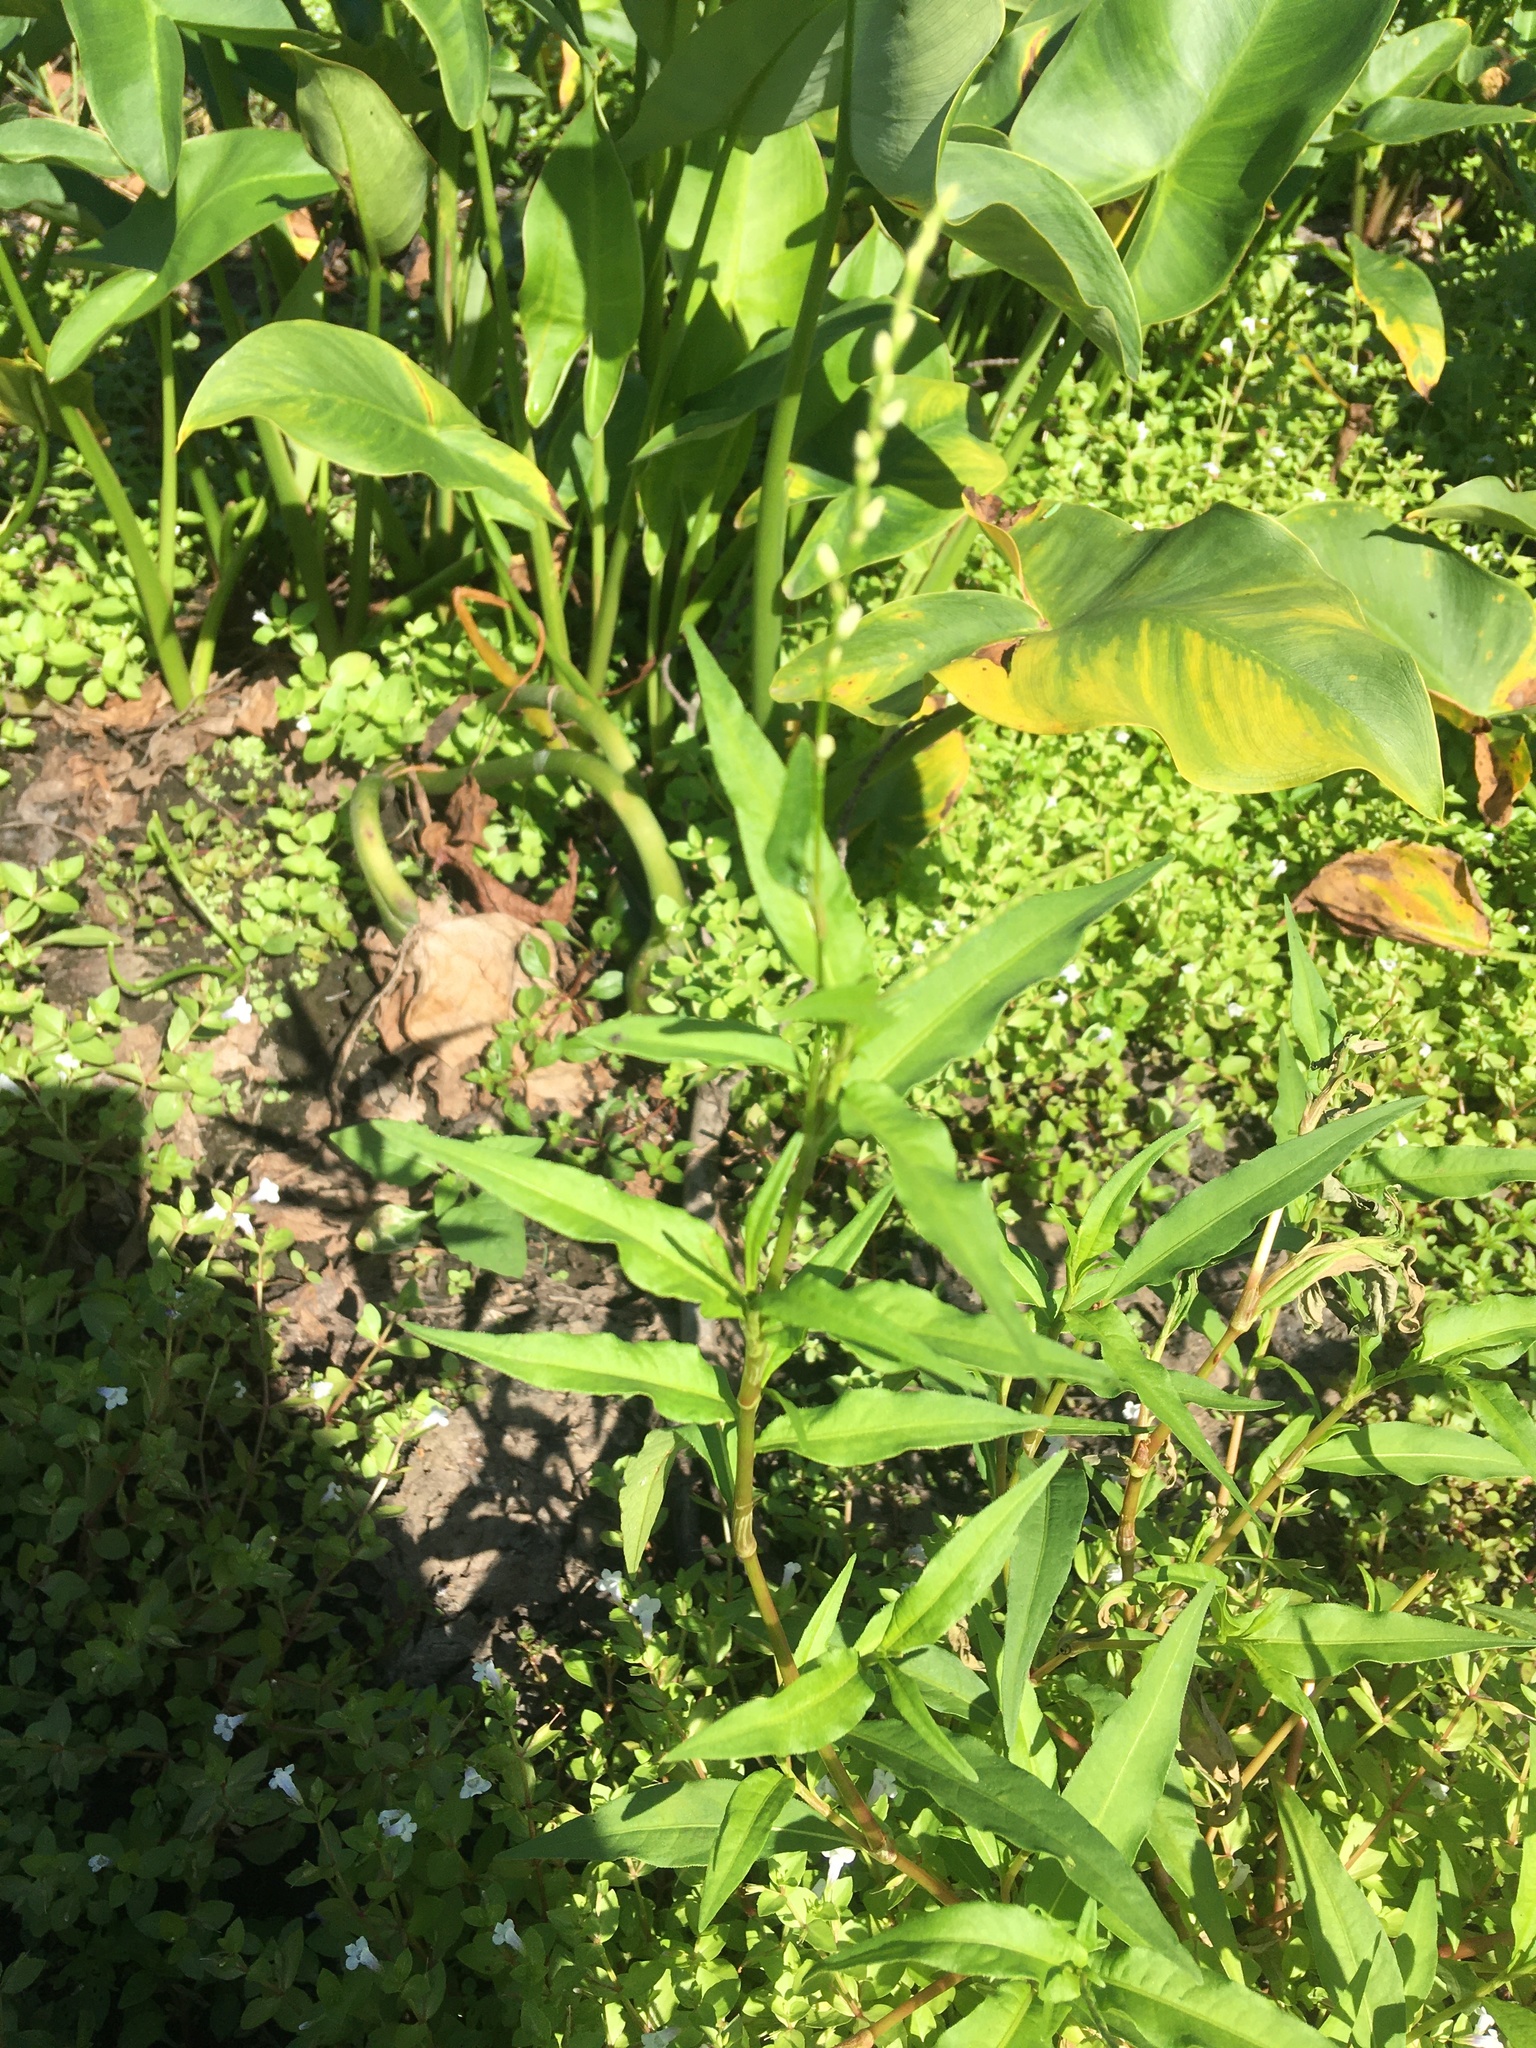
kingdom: Plantae
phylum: Tracheophyta
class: Magnoliopsida
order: Caryophyllales
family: Polygonaceae
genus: Persicaria
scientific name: Persicaria punctata
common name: Dotted smartweed
